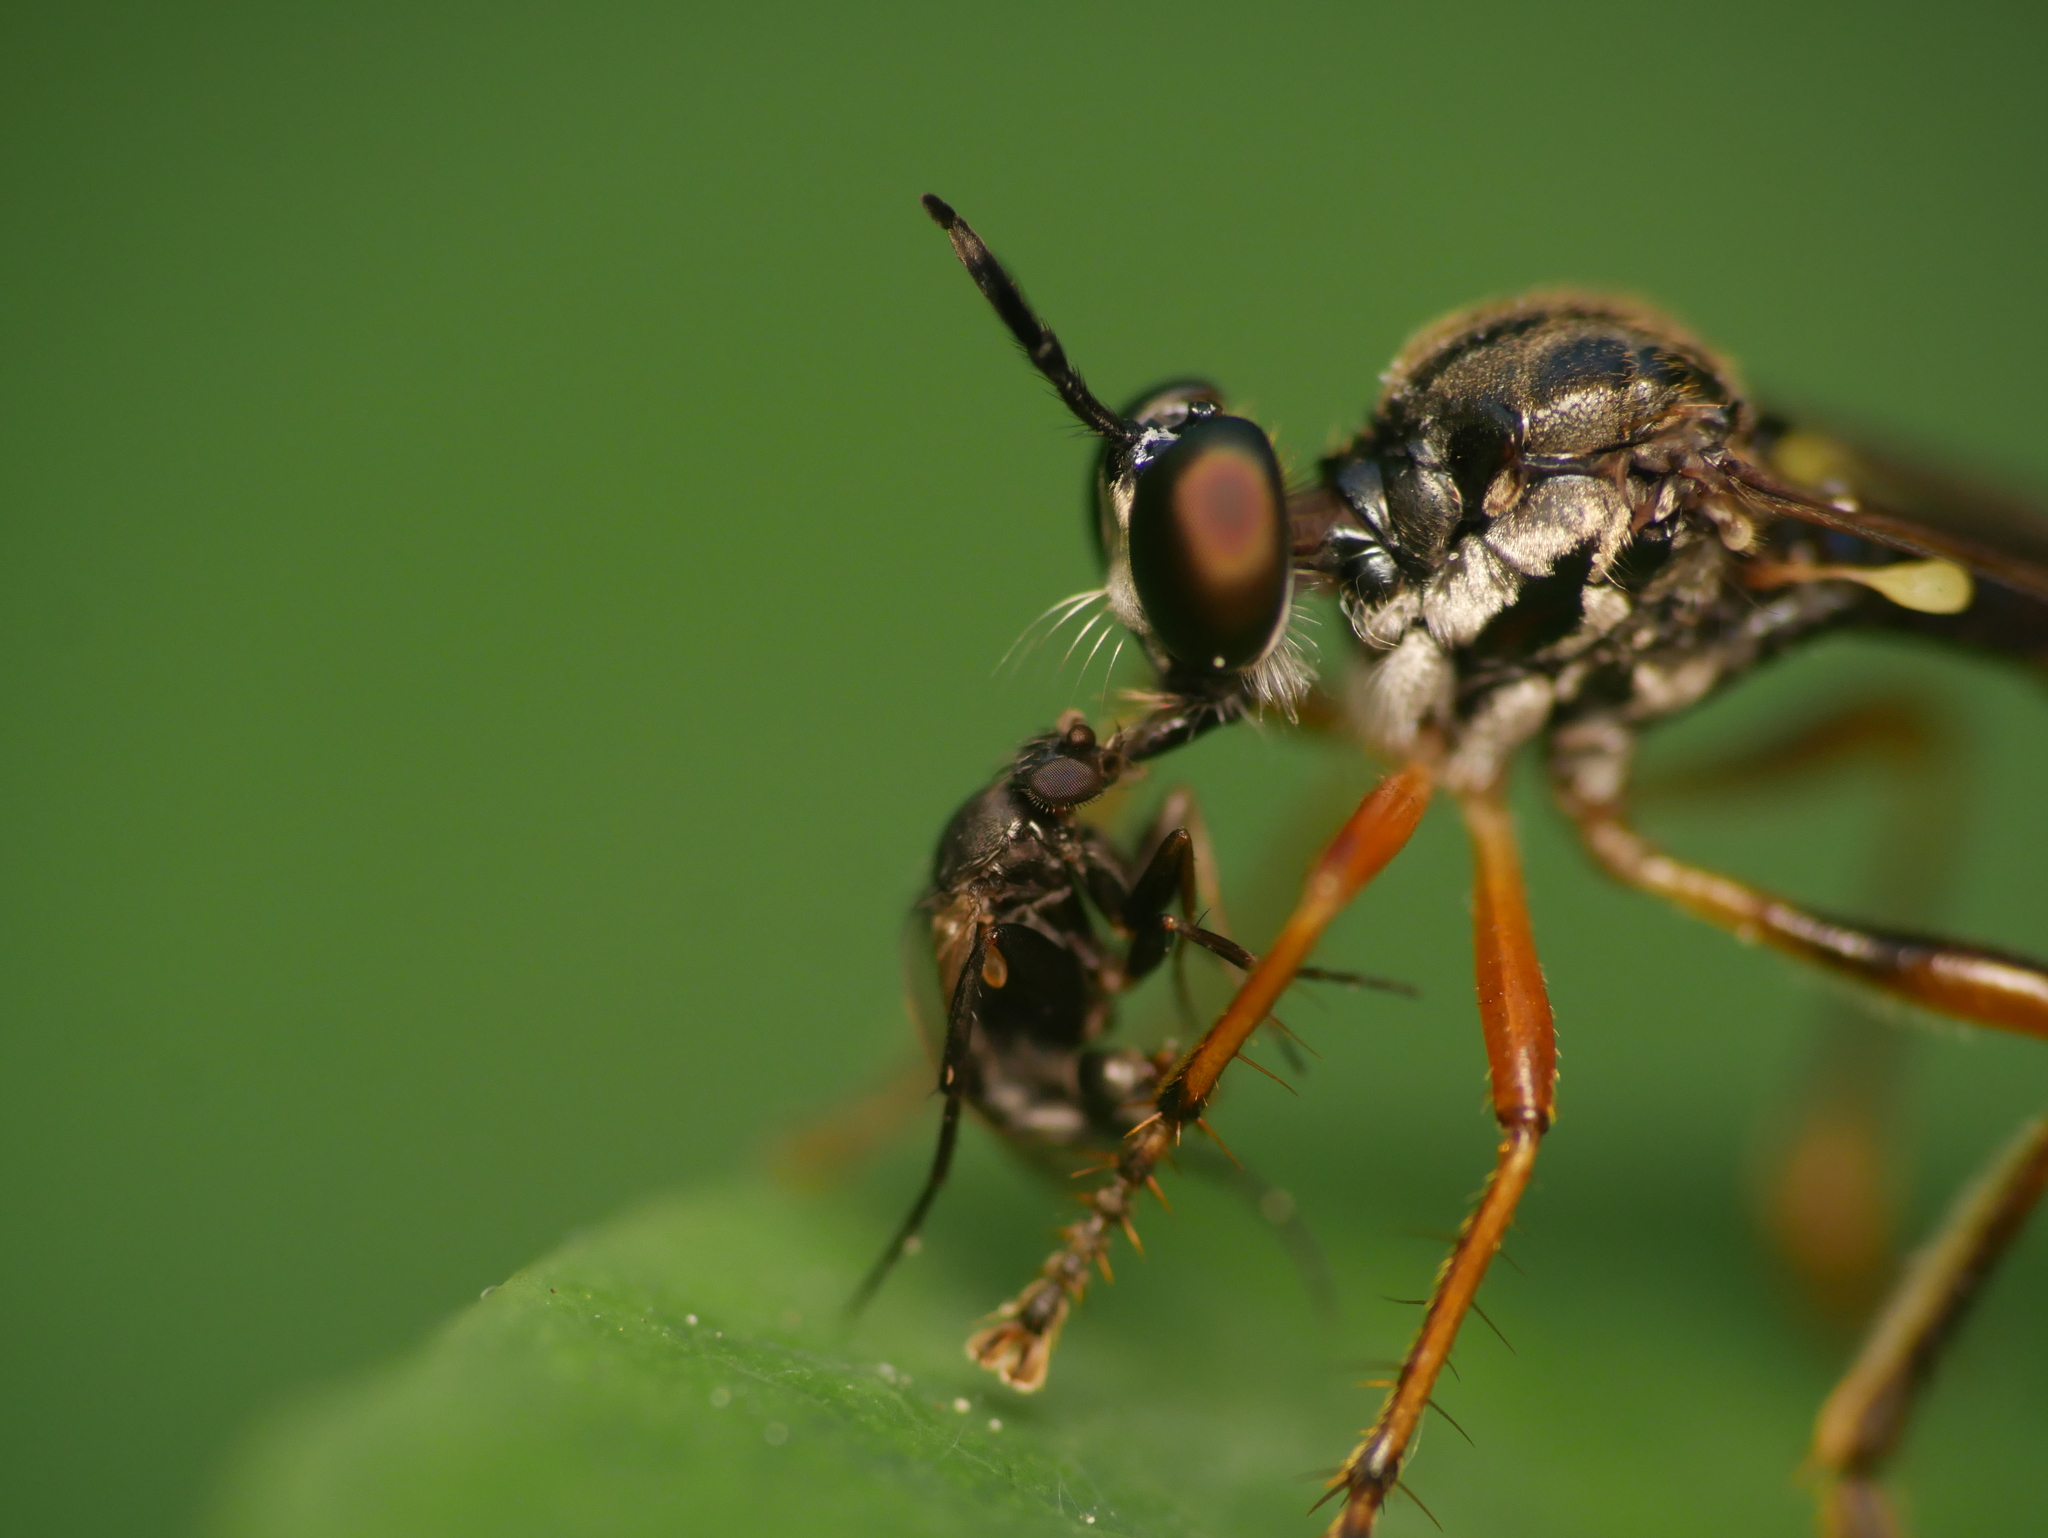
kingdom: Animalia
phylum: Arthropoda
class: Insecta
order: Diptera
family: Asilidae
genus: Dioctria
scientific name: Dioctria hyalipennis
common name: Stripe-legged robberfly
